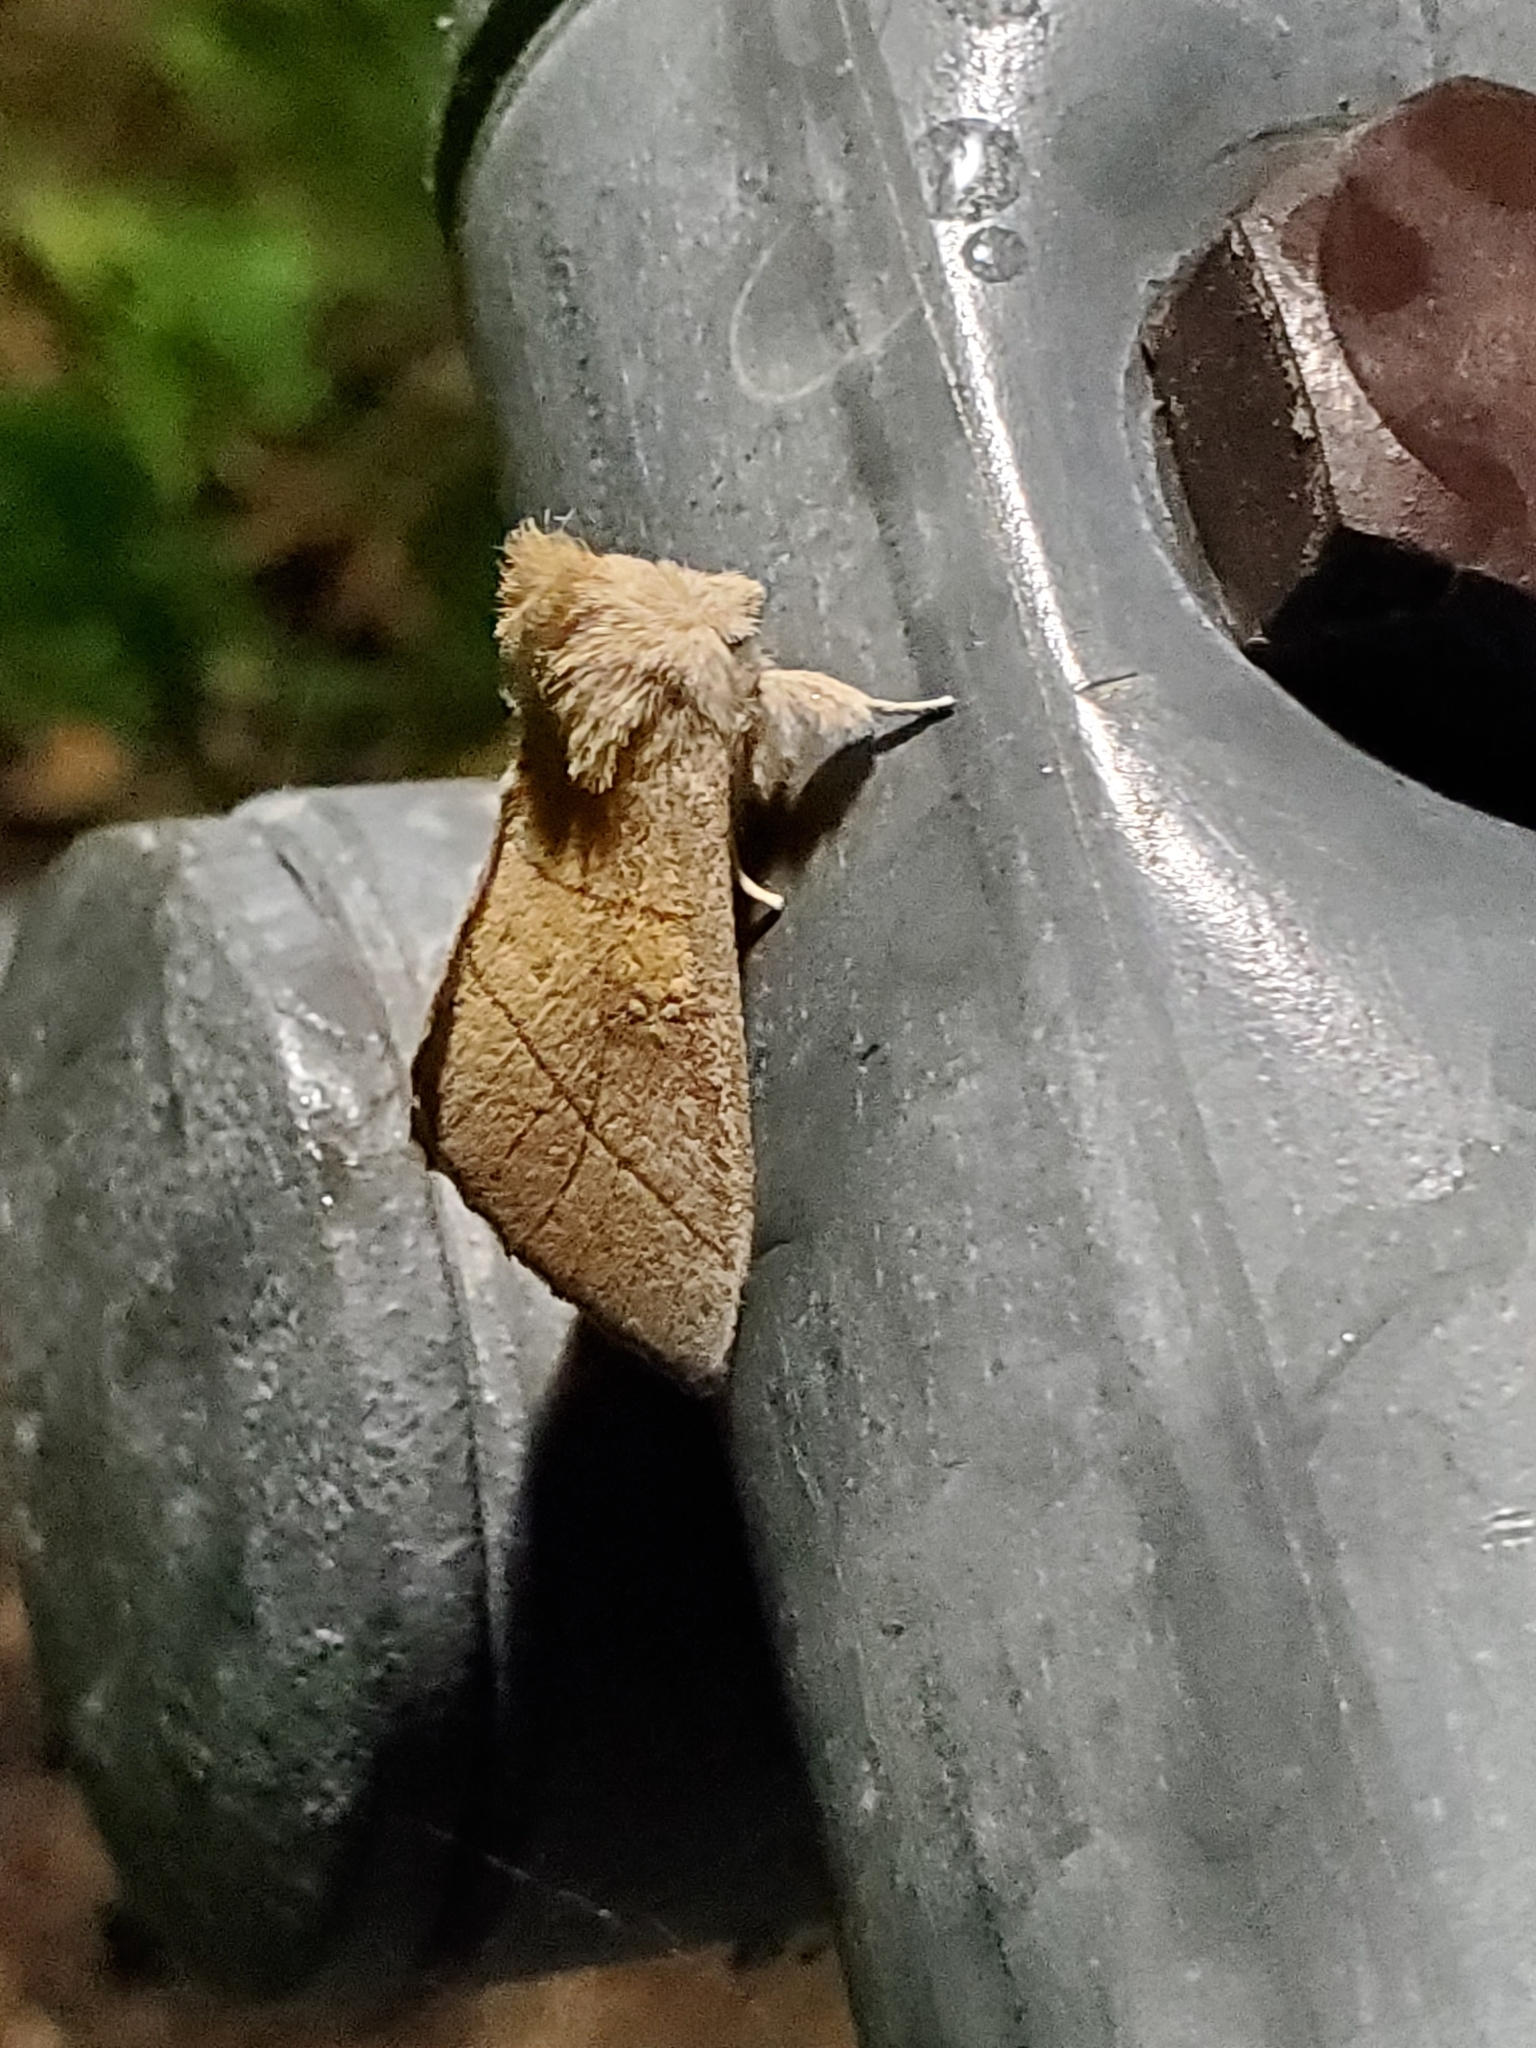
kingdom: Animalia
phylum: Arthropoda
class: Insecta
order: Lepidoptera
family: Notodontidae
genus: Nadata
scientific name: Nadata gibbosa
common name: White-dotted prominent
